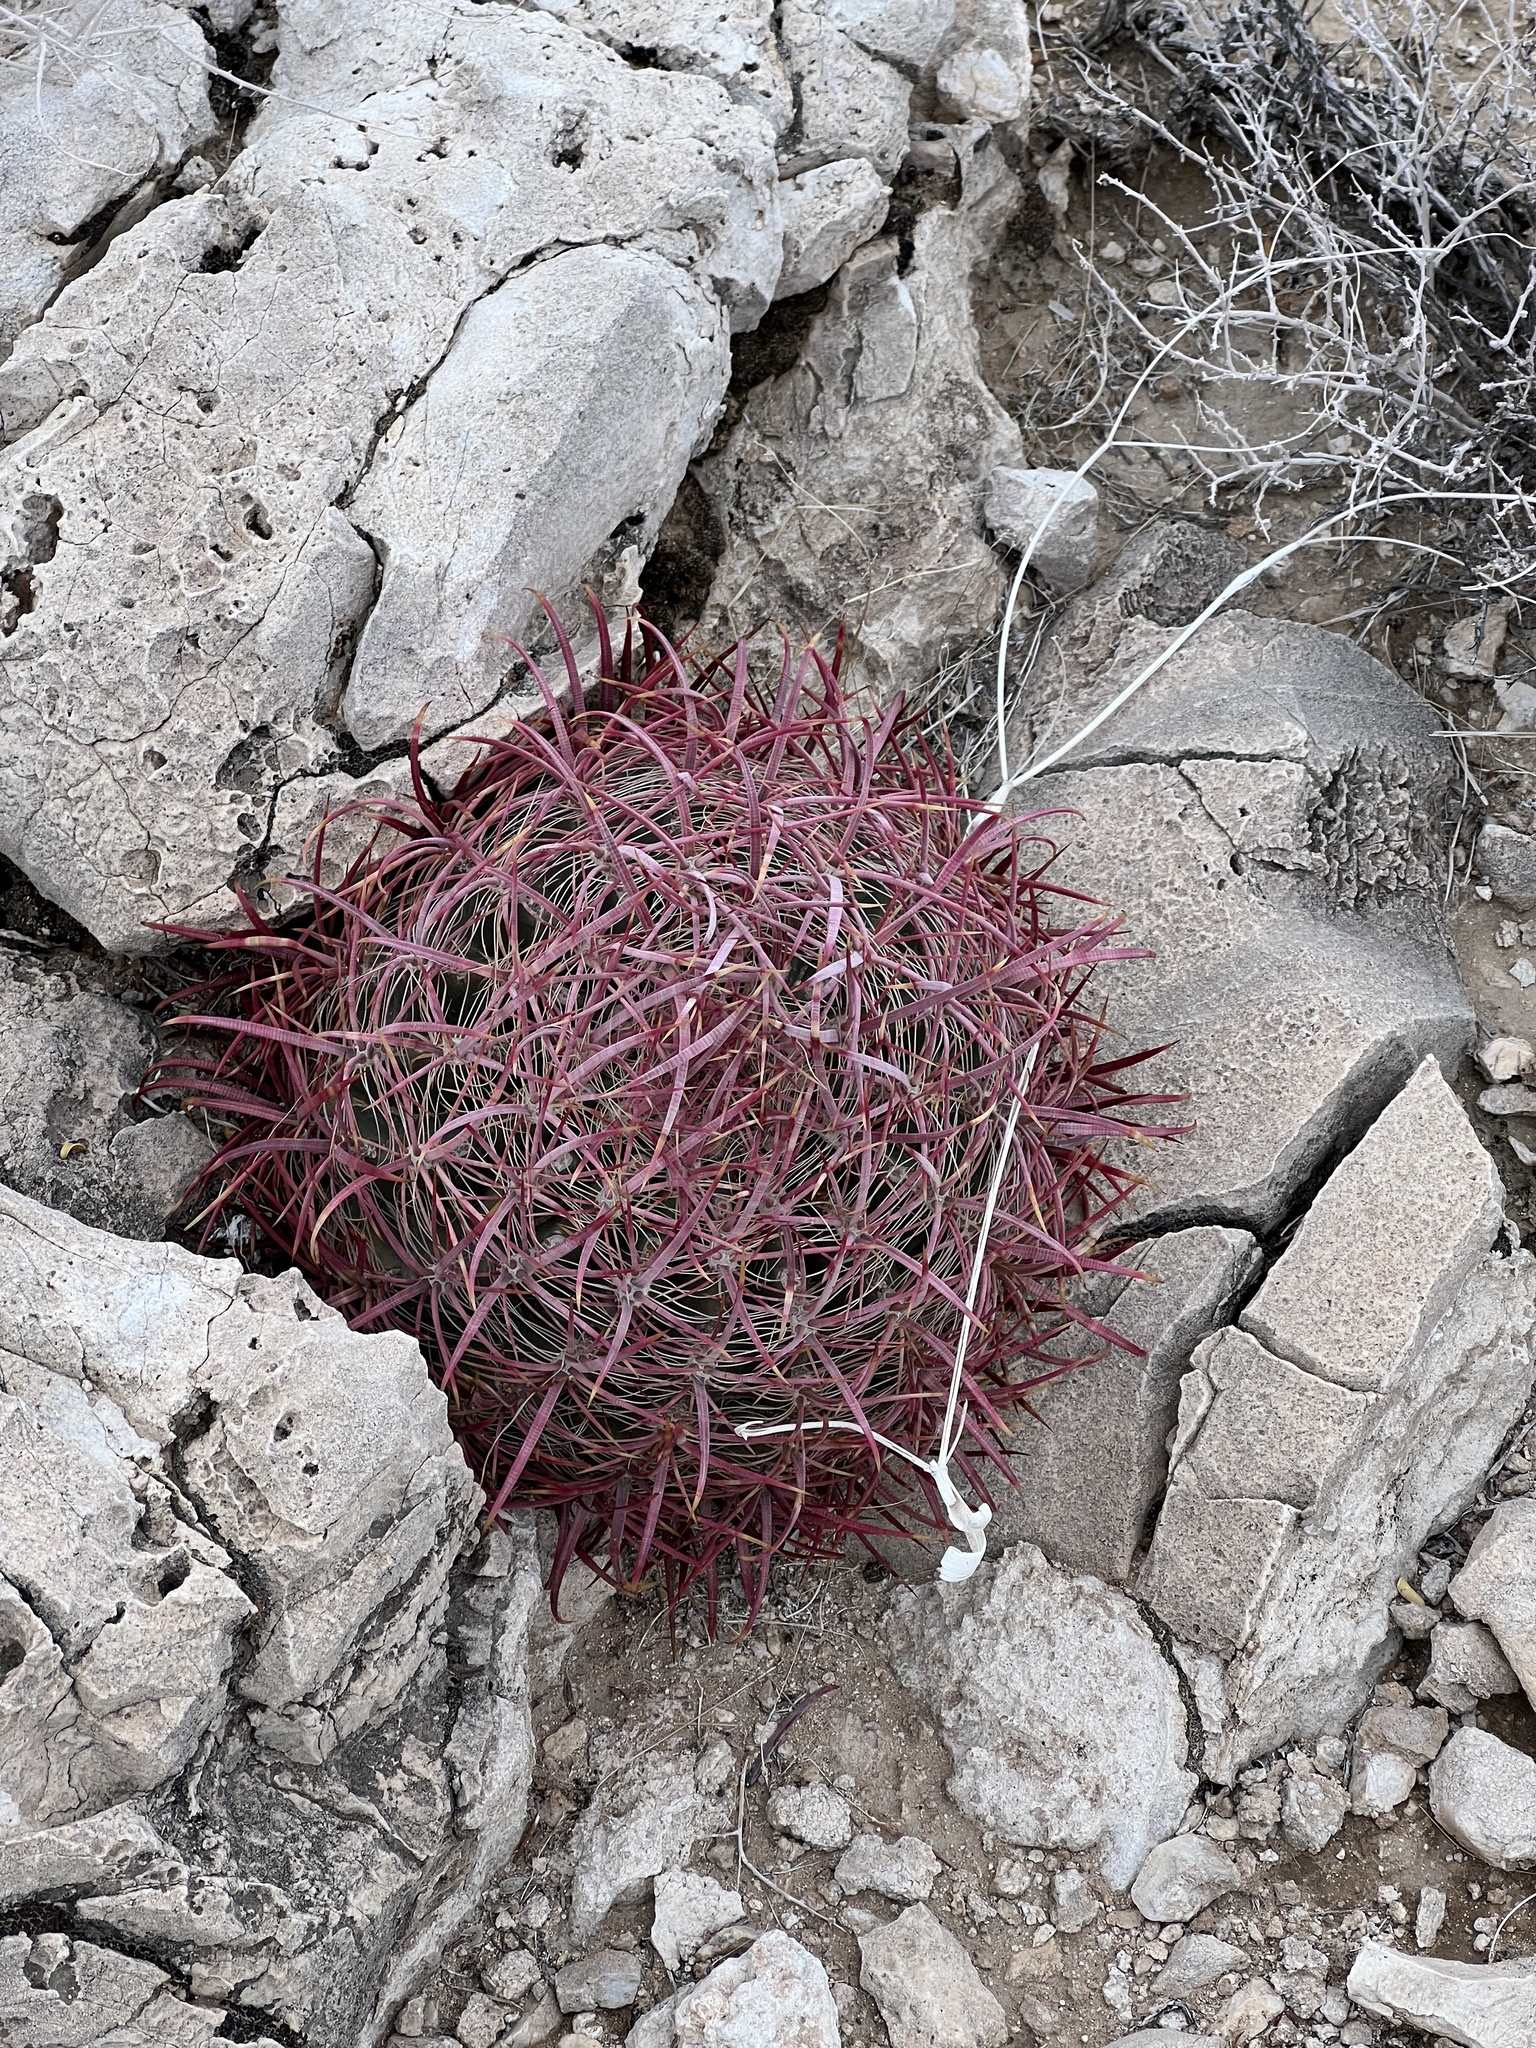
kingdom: Plantae
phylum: Tracheophyta
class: Magnoliopsida
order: Caryophyllales
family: Cactaceae
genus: Ferocactus
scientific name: Ferocactus cylindraceus
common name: California barrel cactus
